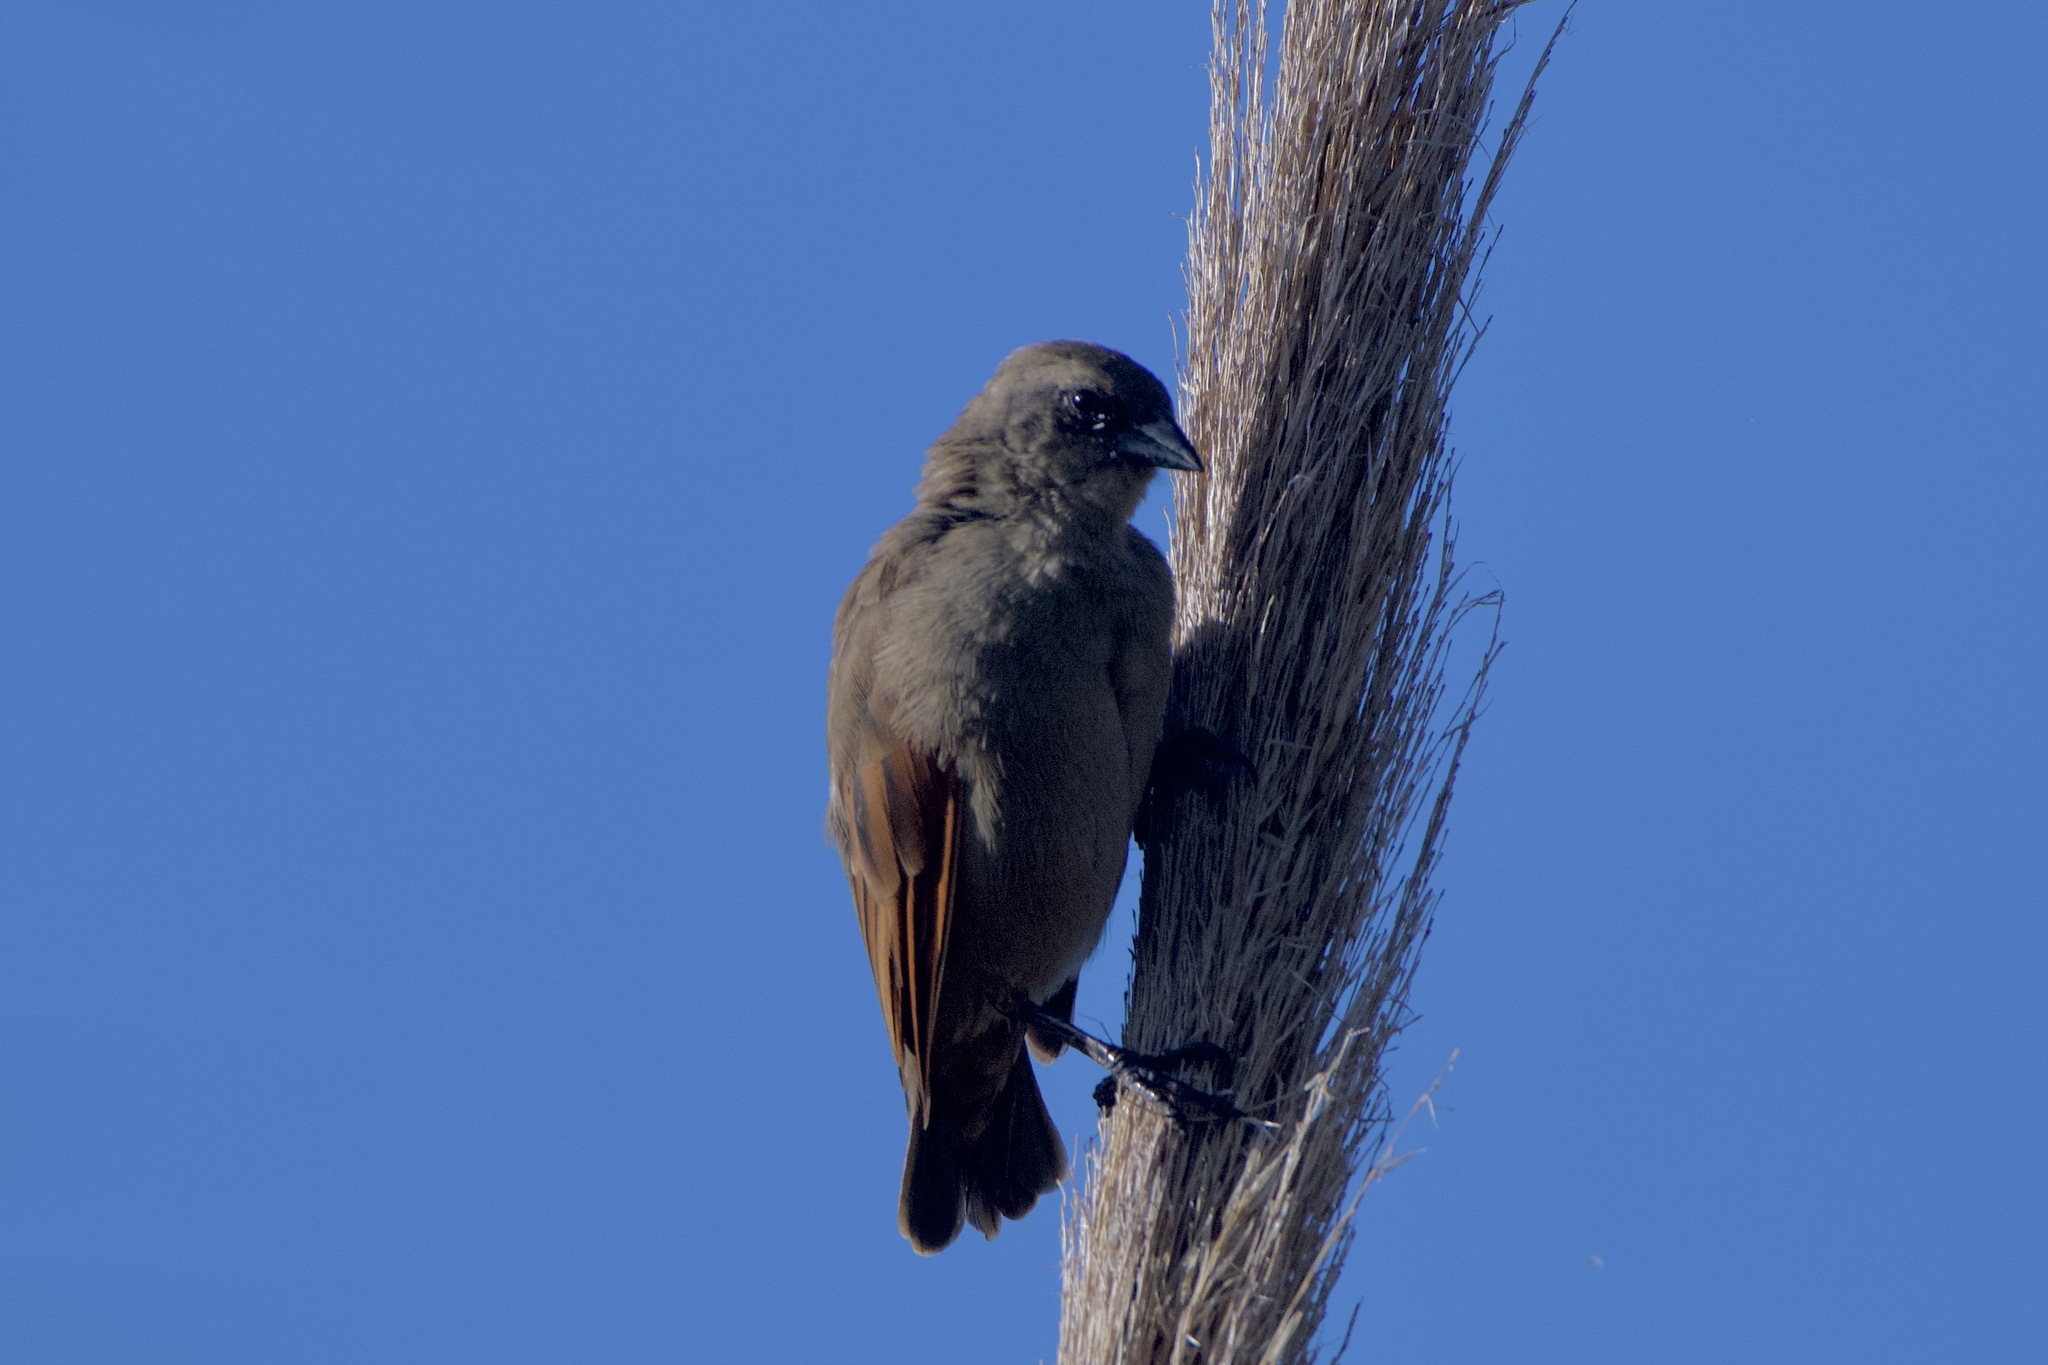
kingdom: Animalia
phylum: Chordata
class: Aves
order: Passeriformes
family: Icteridae
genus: Agelaioides
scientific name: Agelaioides badius
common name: Baywing
